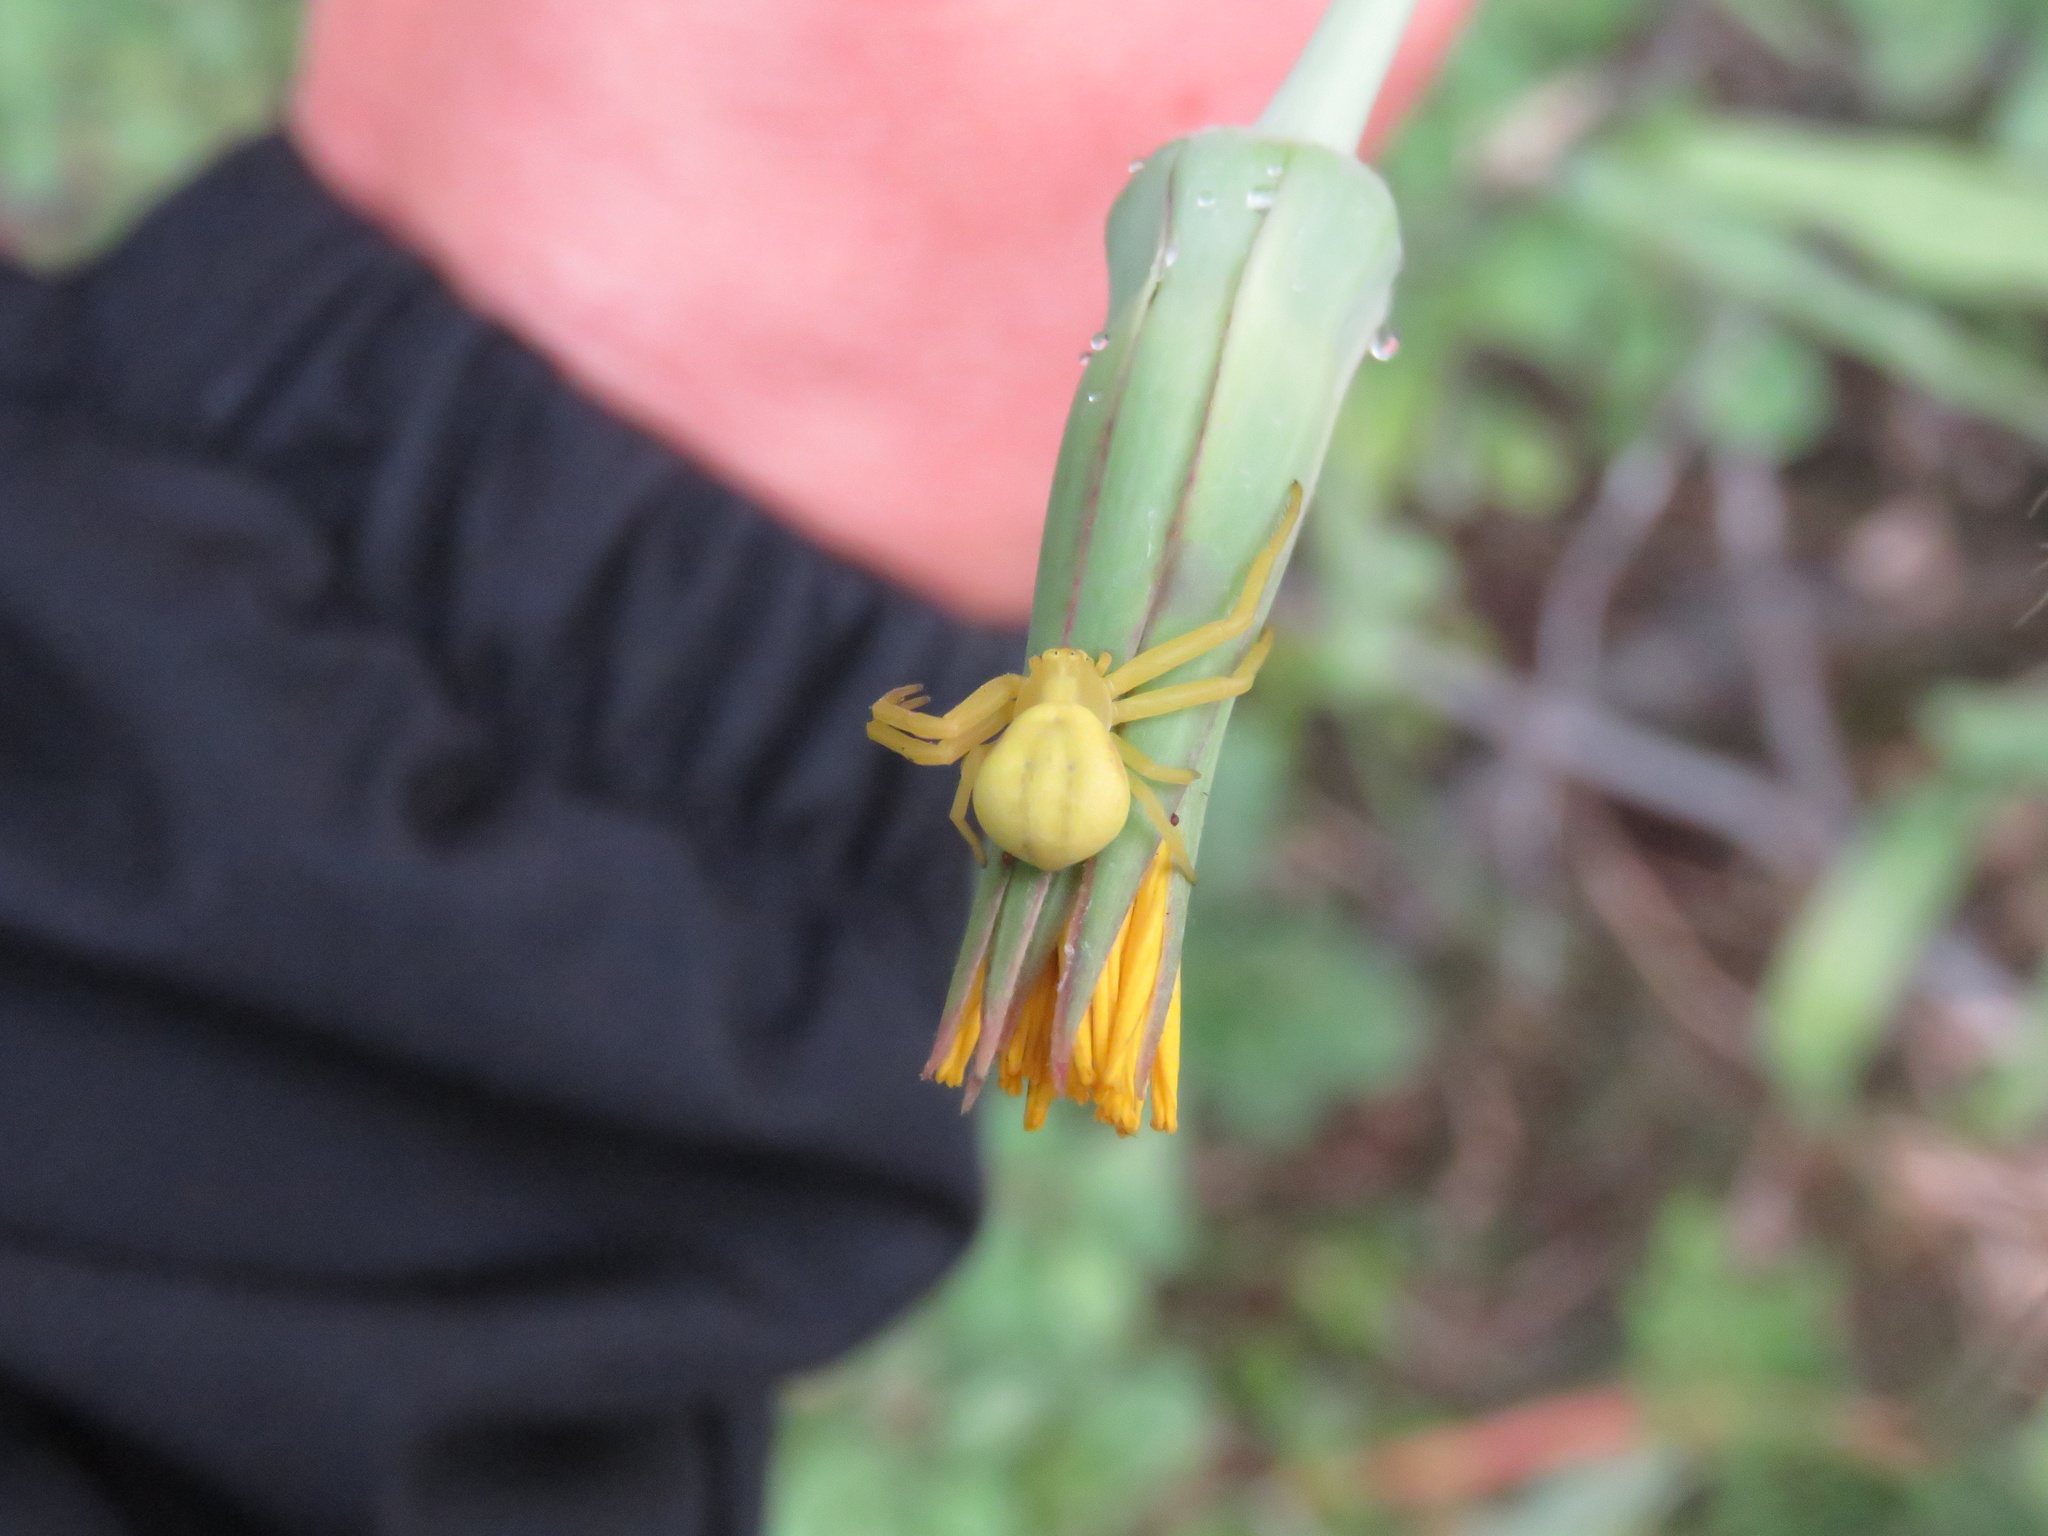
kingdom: Animalia
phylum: Arthropoda
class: Arachnida
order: Araneae
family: Thomisidae
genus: Misumena
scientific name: Misumena vatia
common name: Goldenrod crab spider
